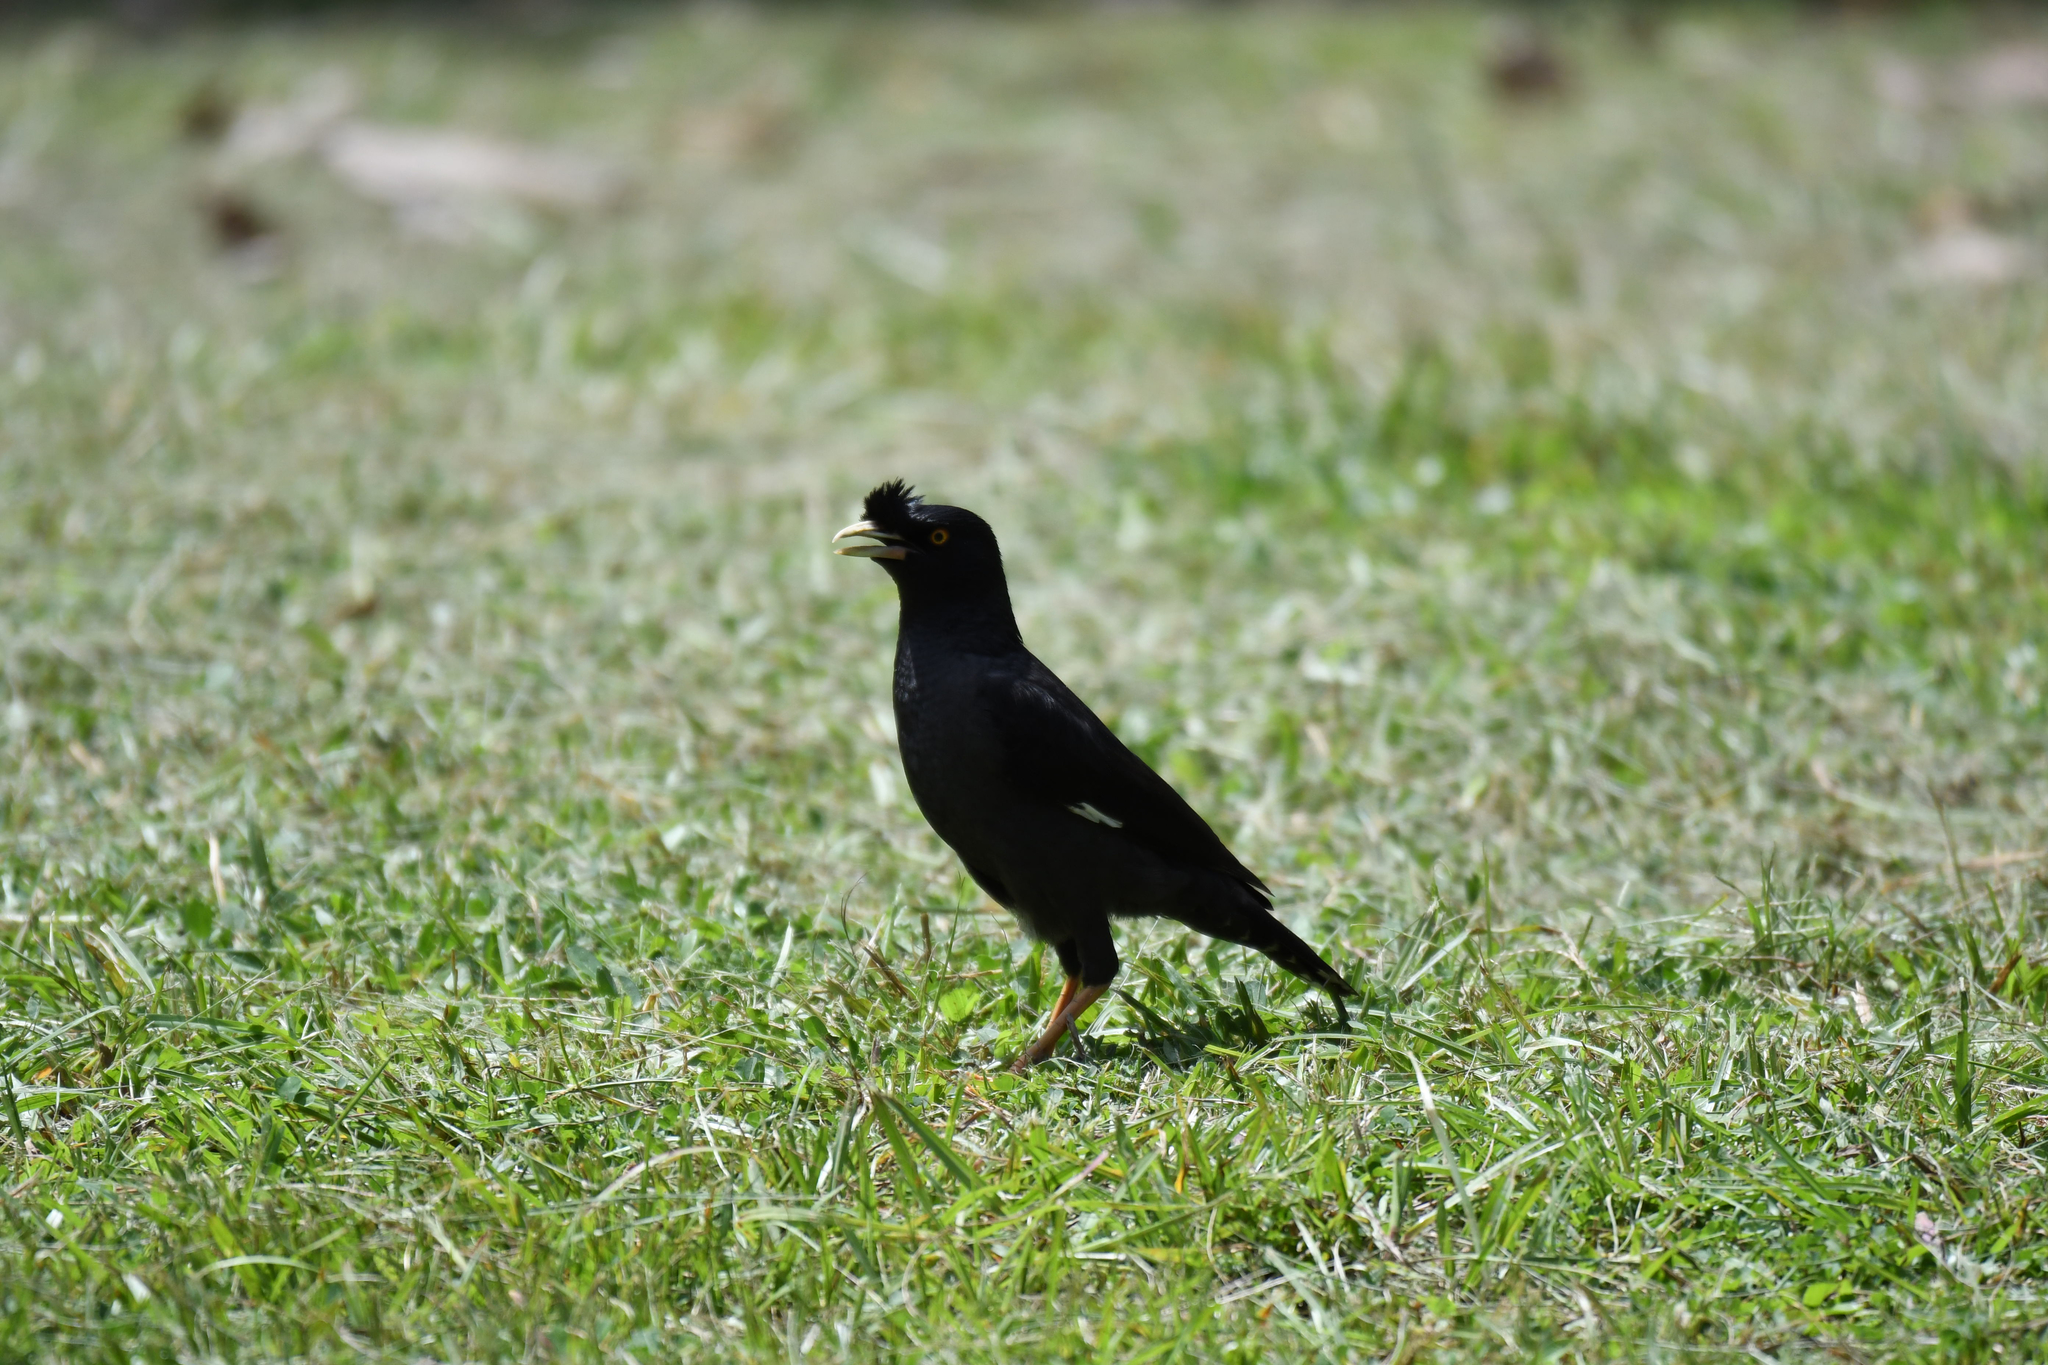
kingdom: Animalia
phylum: Chordata
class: Aves
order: Passeriformes
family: Sturnidae
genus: Acridotheres
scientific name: Acridotheres cristatellus
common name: Crested myna
